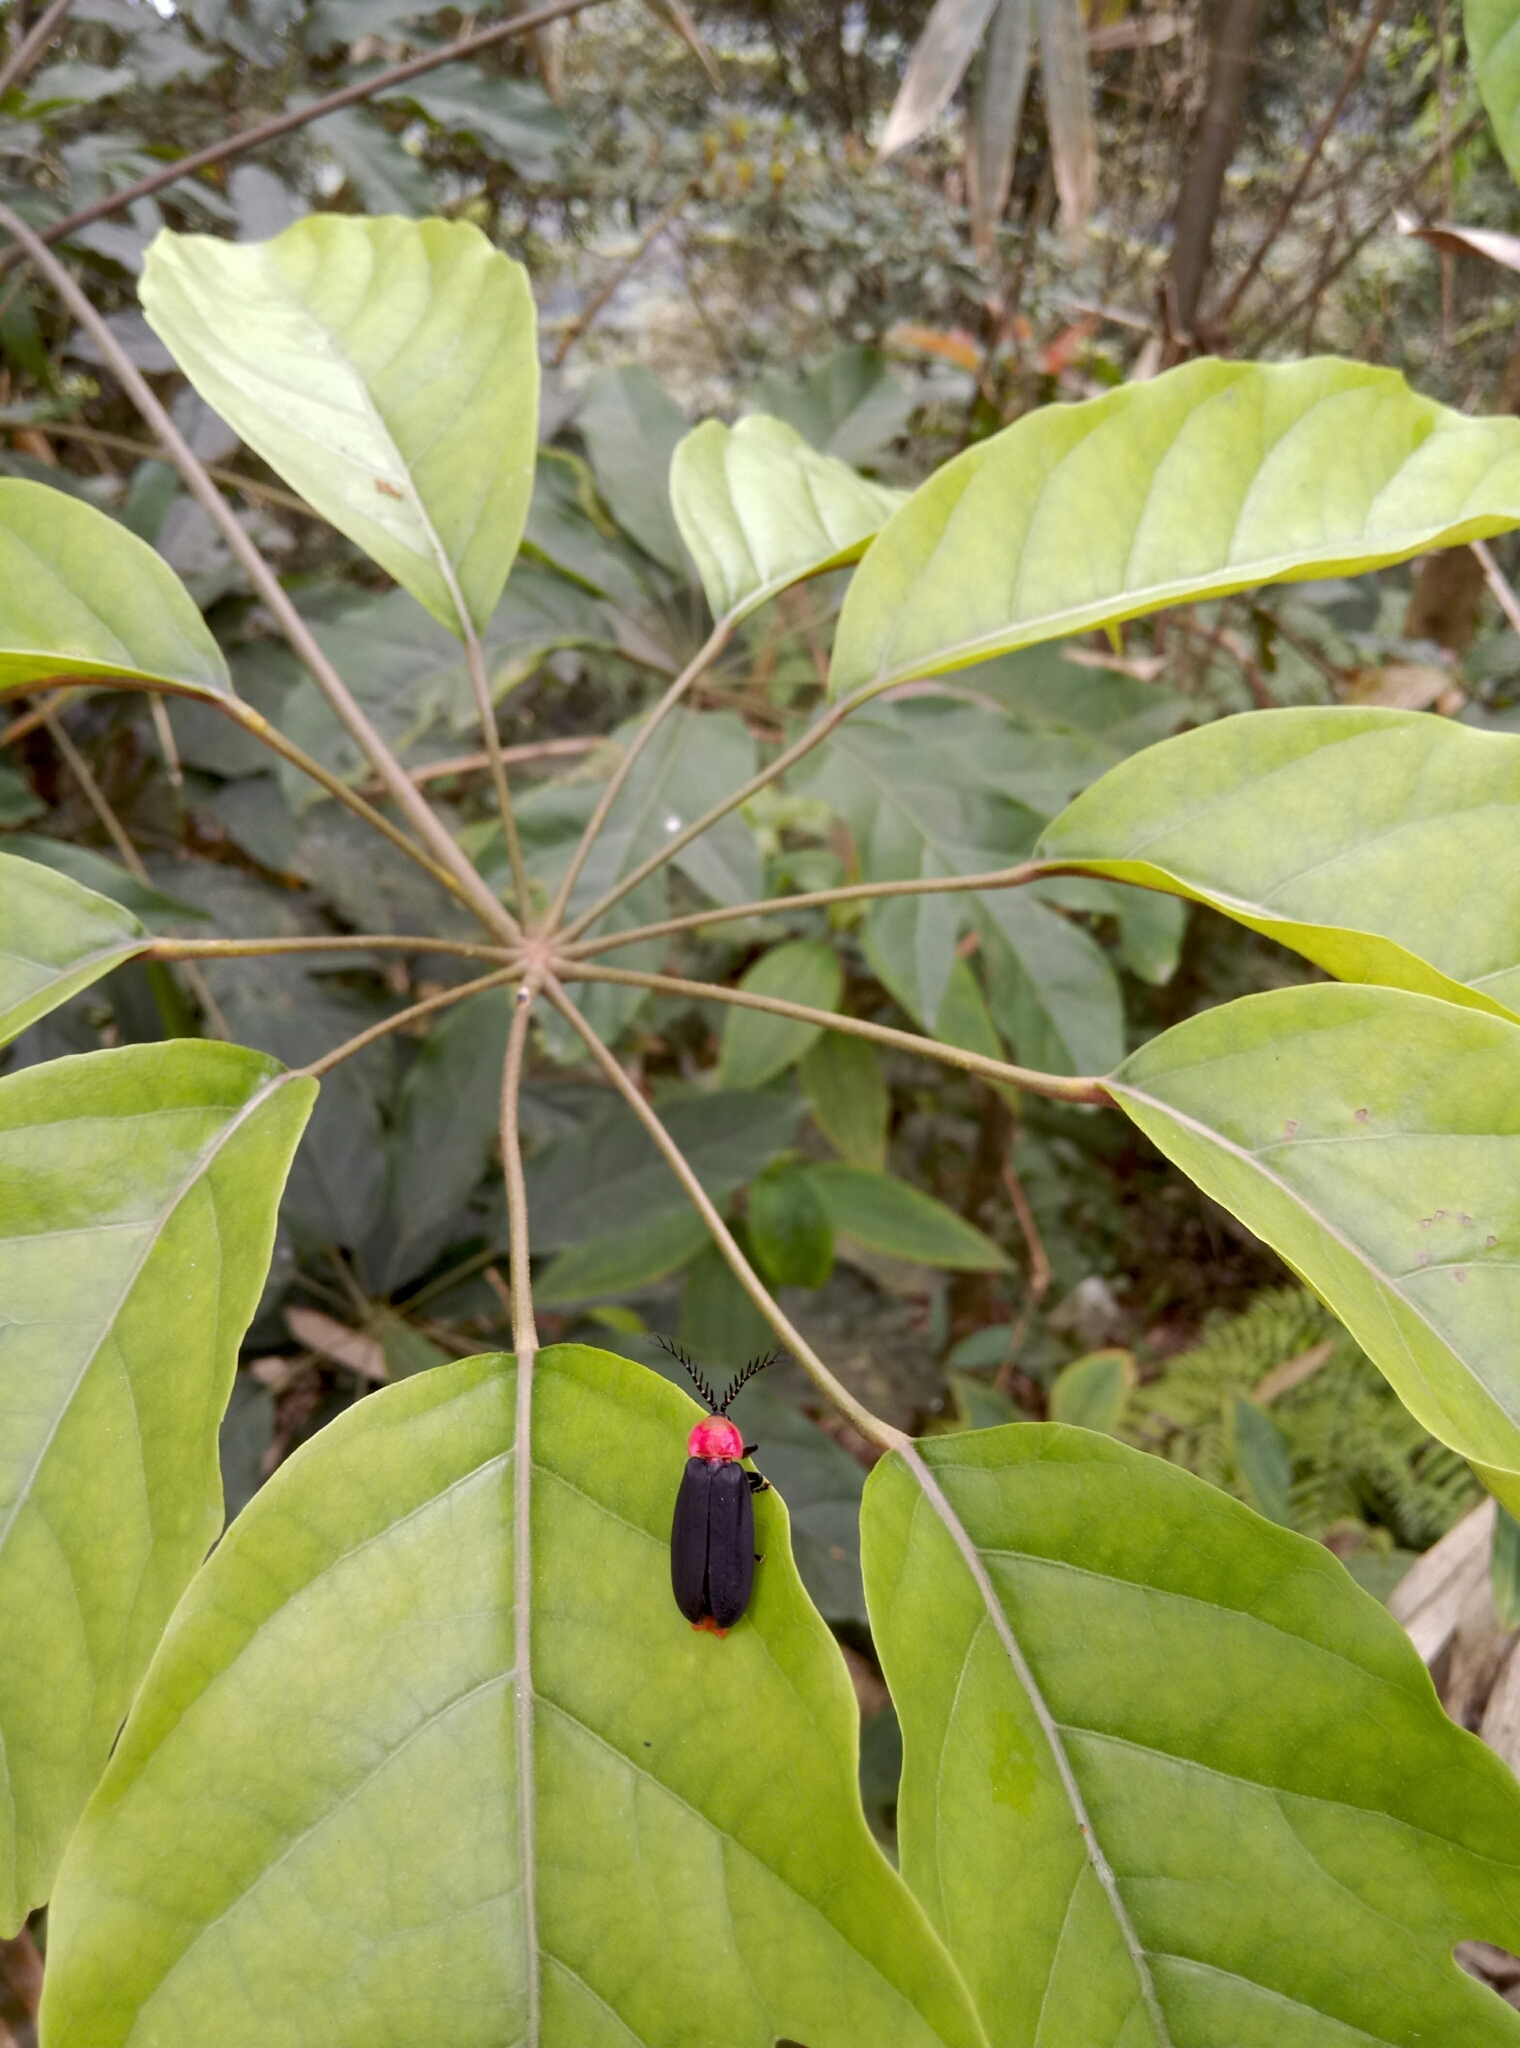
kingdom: Animalia
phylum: Arthropoda
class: Insecta
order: Coleoptera
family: Lampyridae
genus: Vesta
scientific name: Vesta chevrolatii
